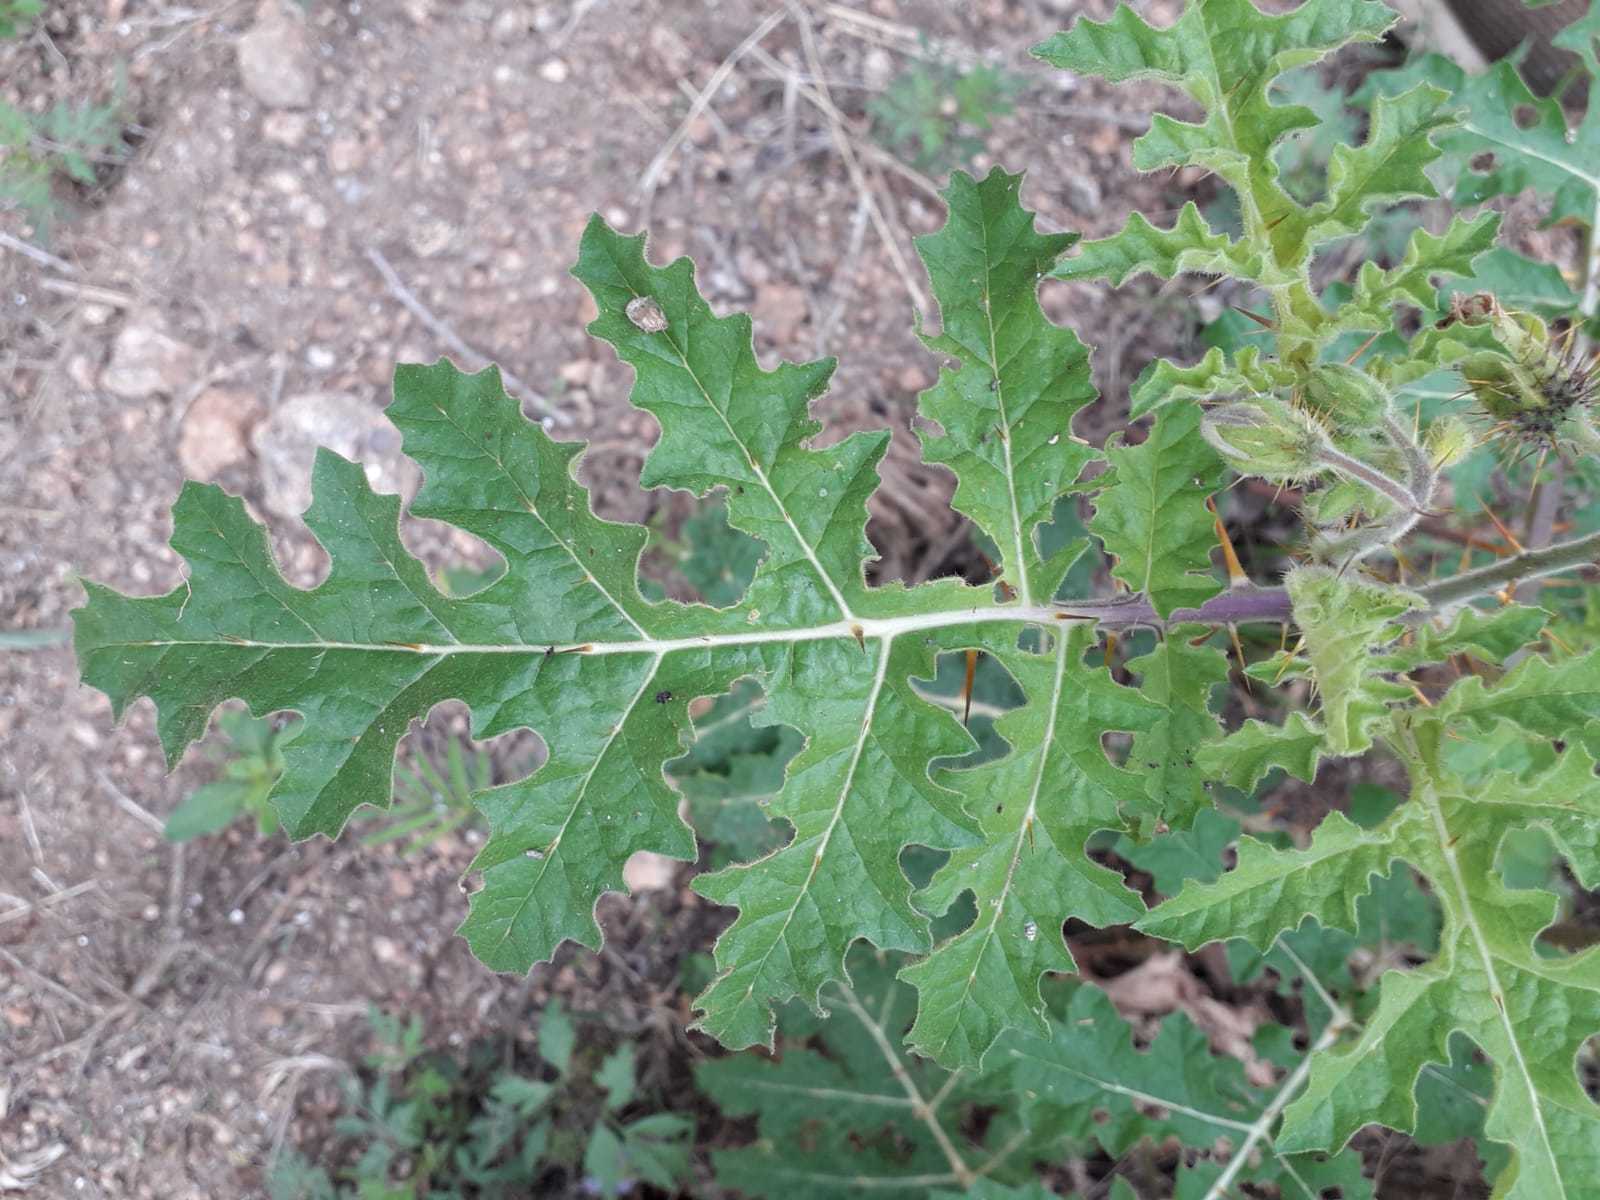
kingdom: Plantae
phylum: Tracheophyta
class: Magnoliopsida
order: Solanales
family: Solanaceae
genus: Solanum
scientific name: Solanum sisymbriifolium
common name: Red buffalo-bur
